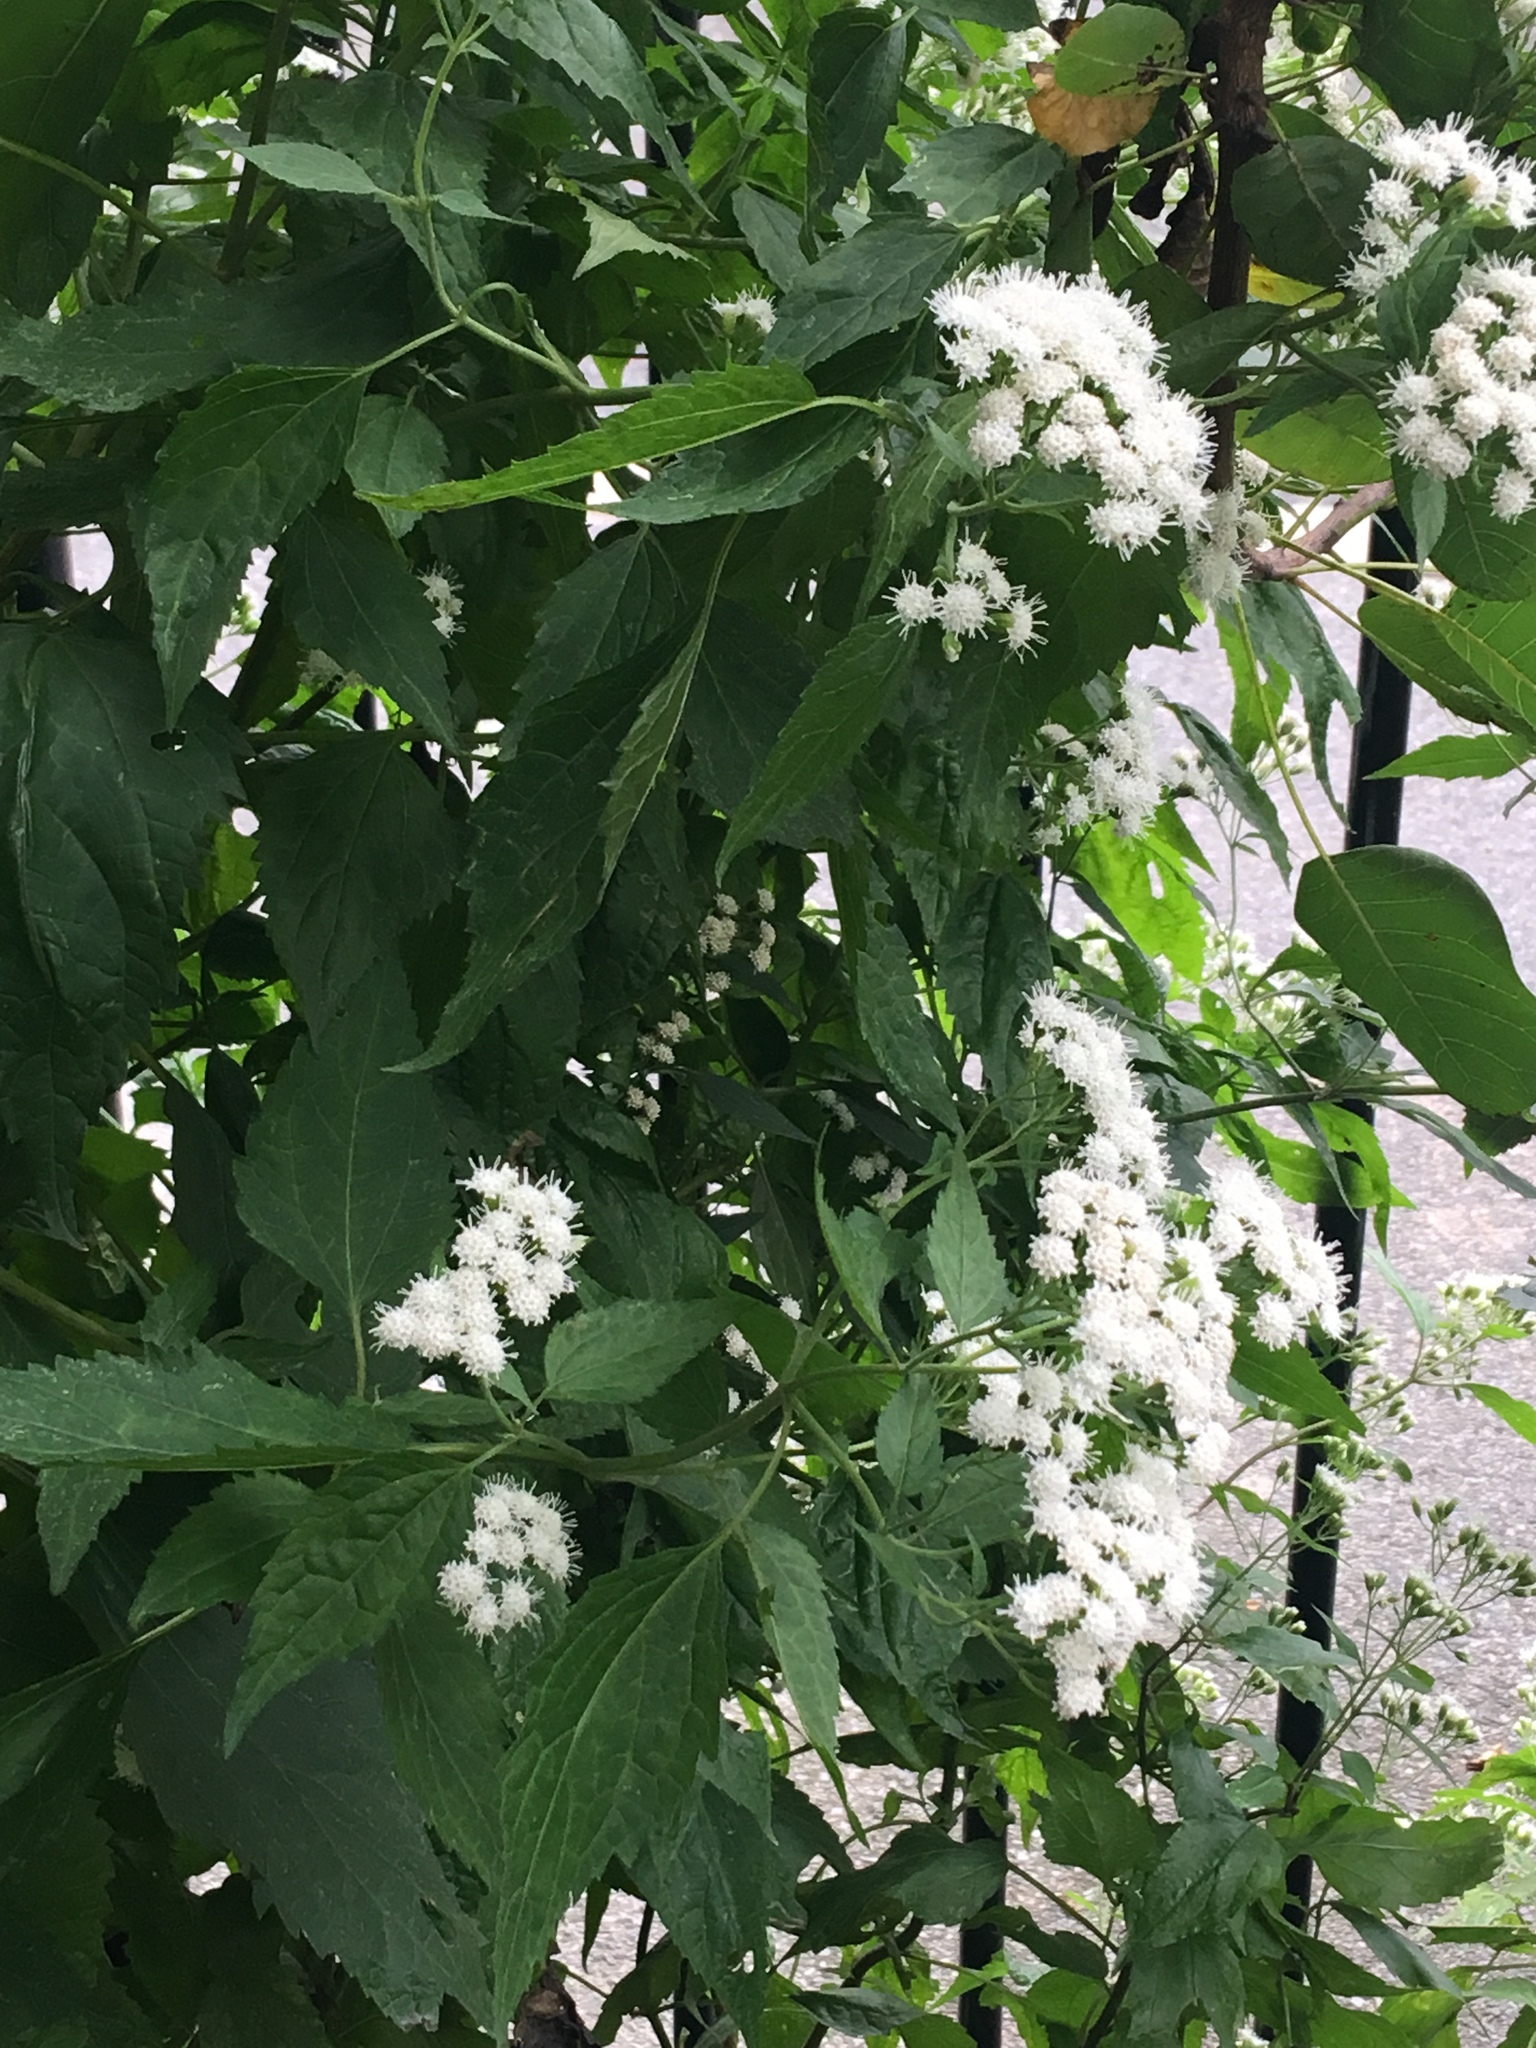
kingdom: Plantae
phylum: Tracheophyta
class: Magnoliopsida
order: Asterales
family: Asteraceae
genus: Ageratina
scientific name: Ageratina altissima
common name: White snakeroot
